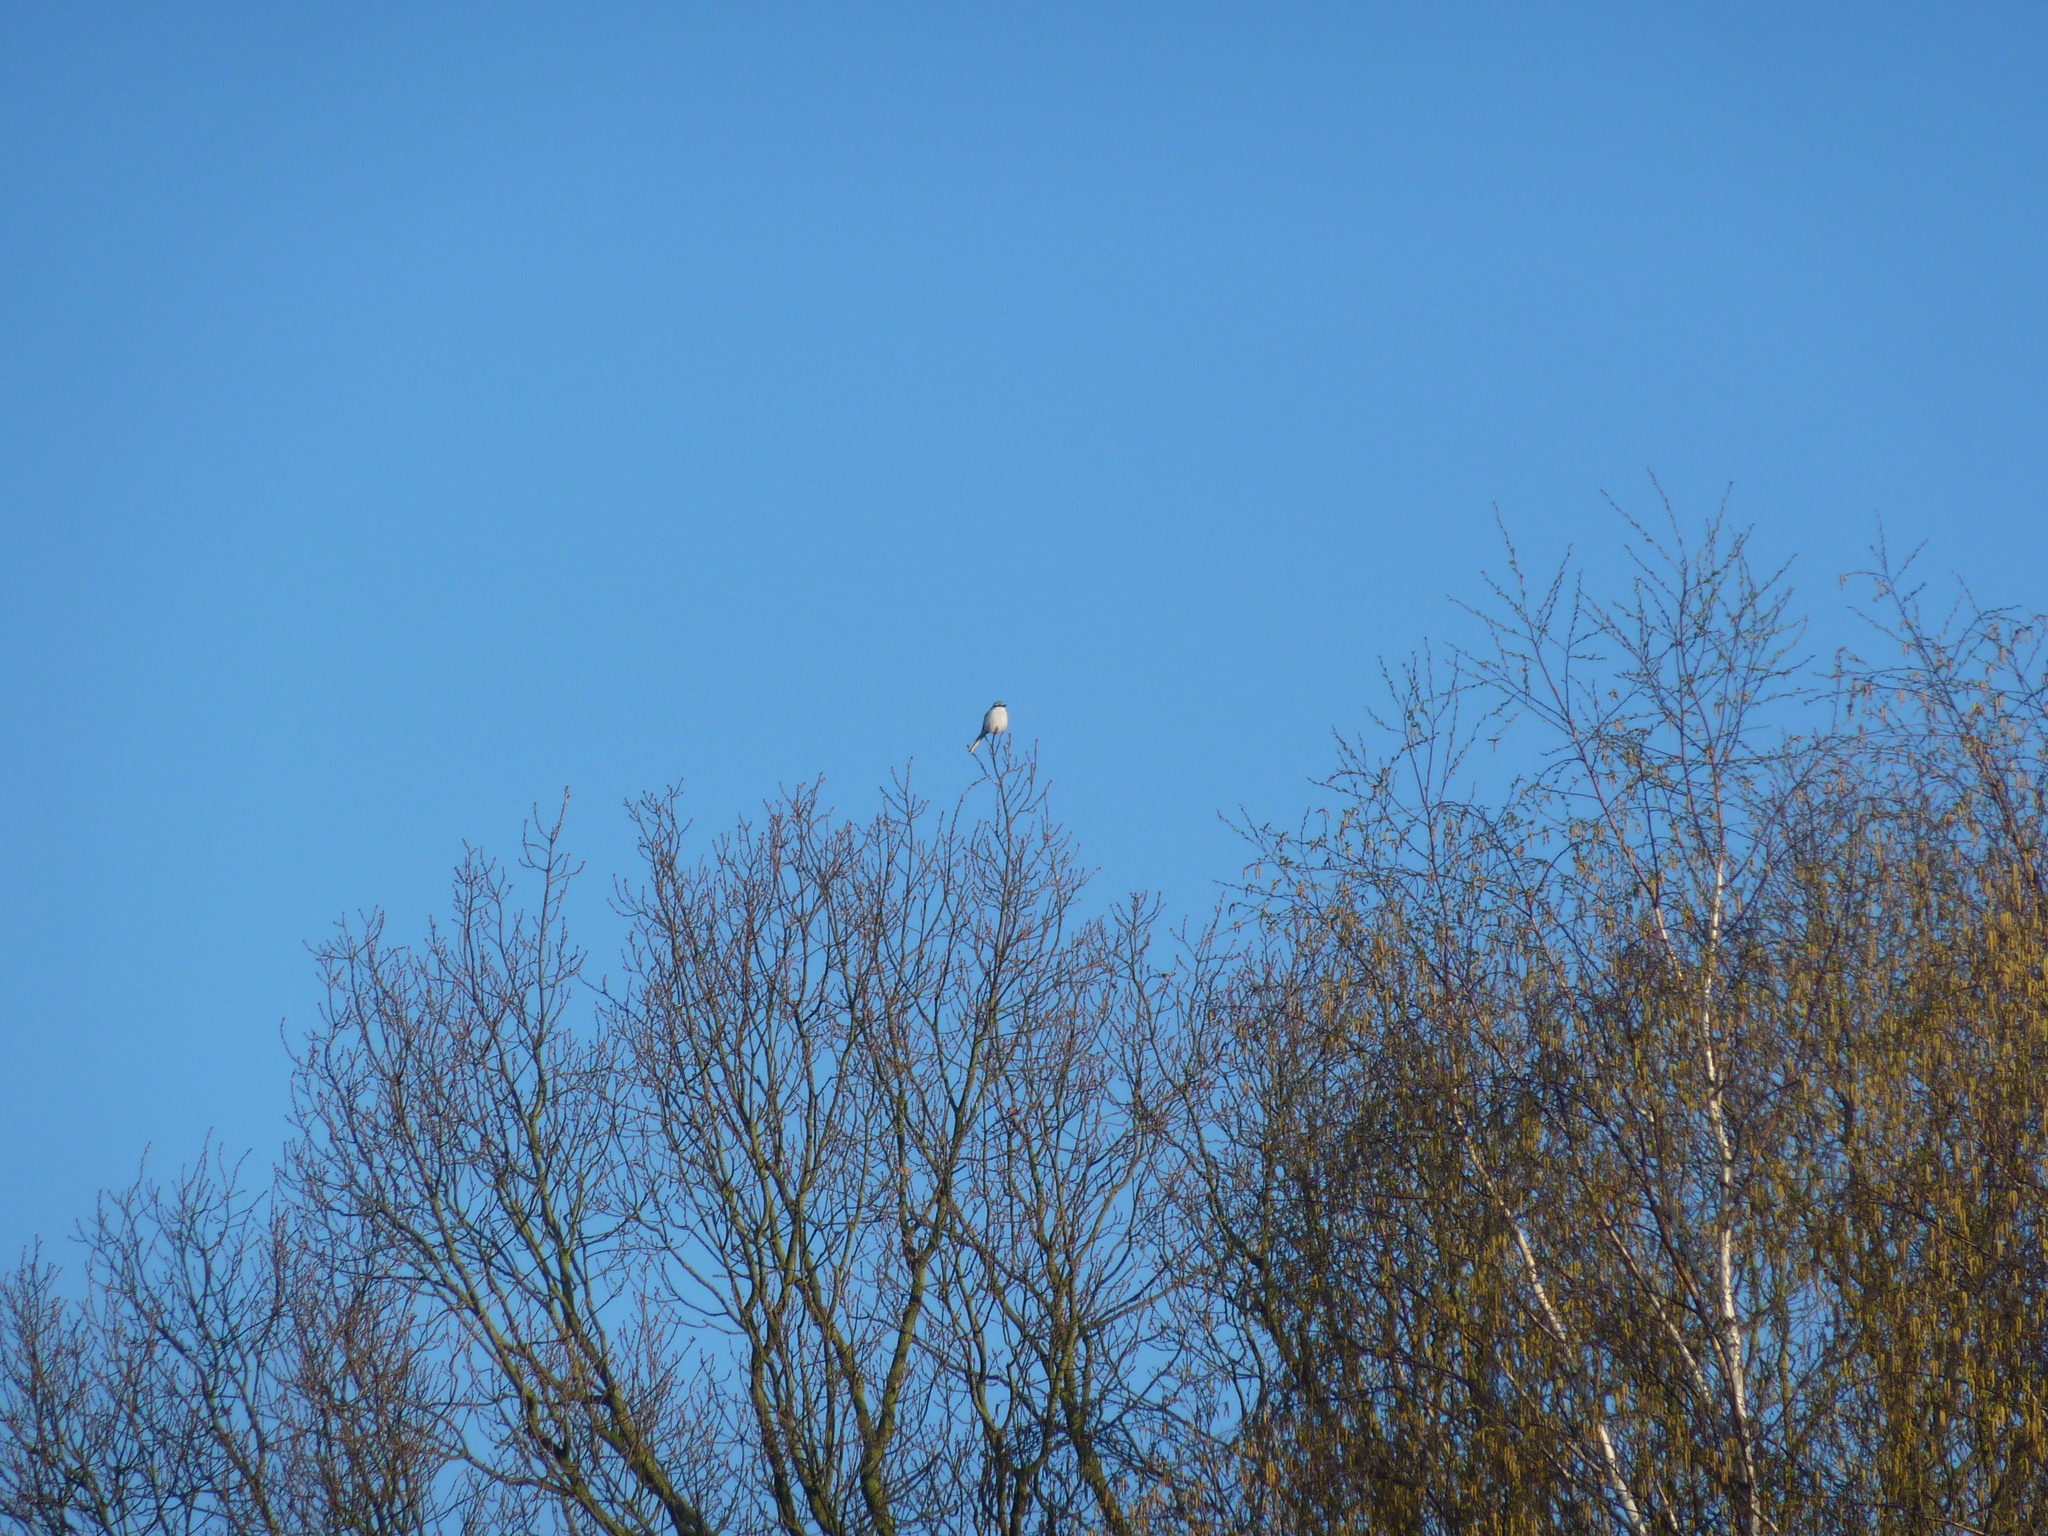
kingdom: Animalia
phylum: Chordata
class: Aves
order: Passeriformes
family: Laniidae
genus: Lanius
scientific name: Lanius excubitor
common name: Great grey shrike
